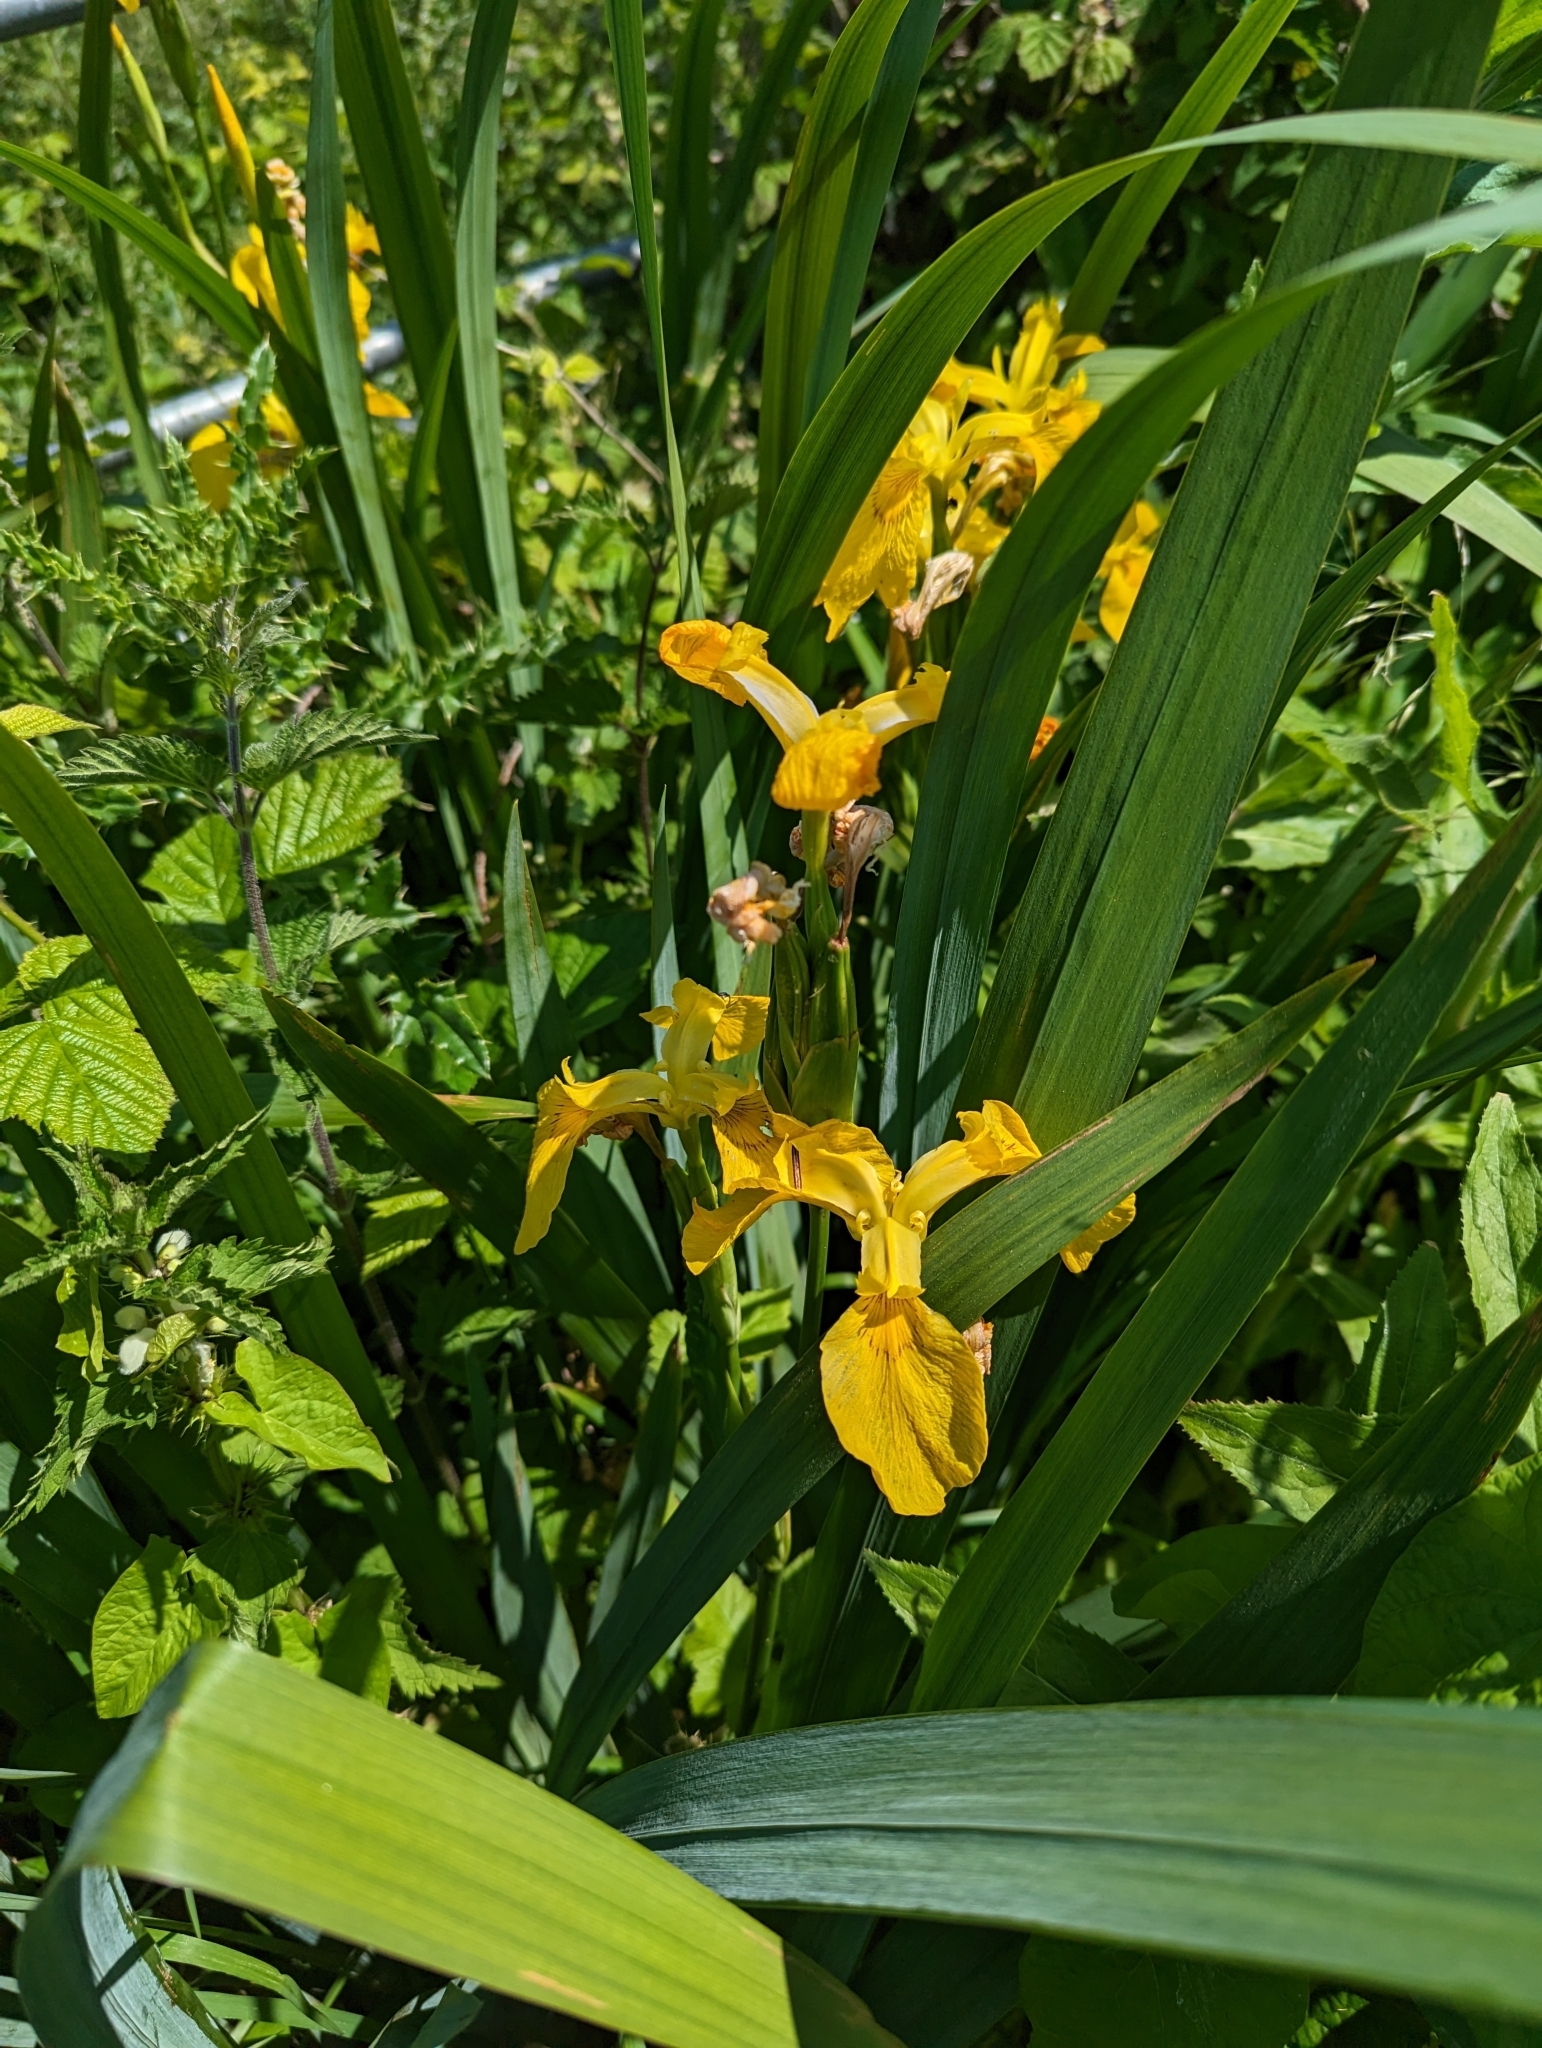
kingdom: Plantae
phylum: Tracheophyta
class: Liliopsida
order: Asparagales
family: Iridaceae
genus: Iris
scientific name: Iris pseudacorus
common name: Yellow flag
